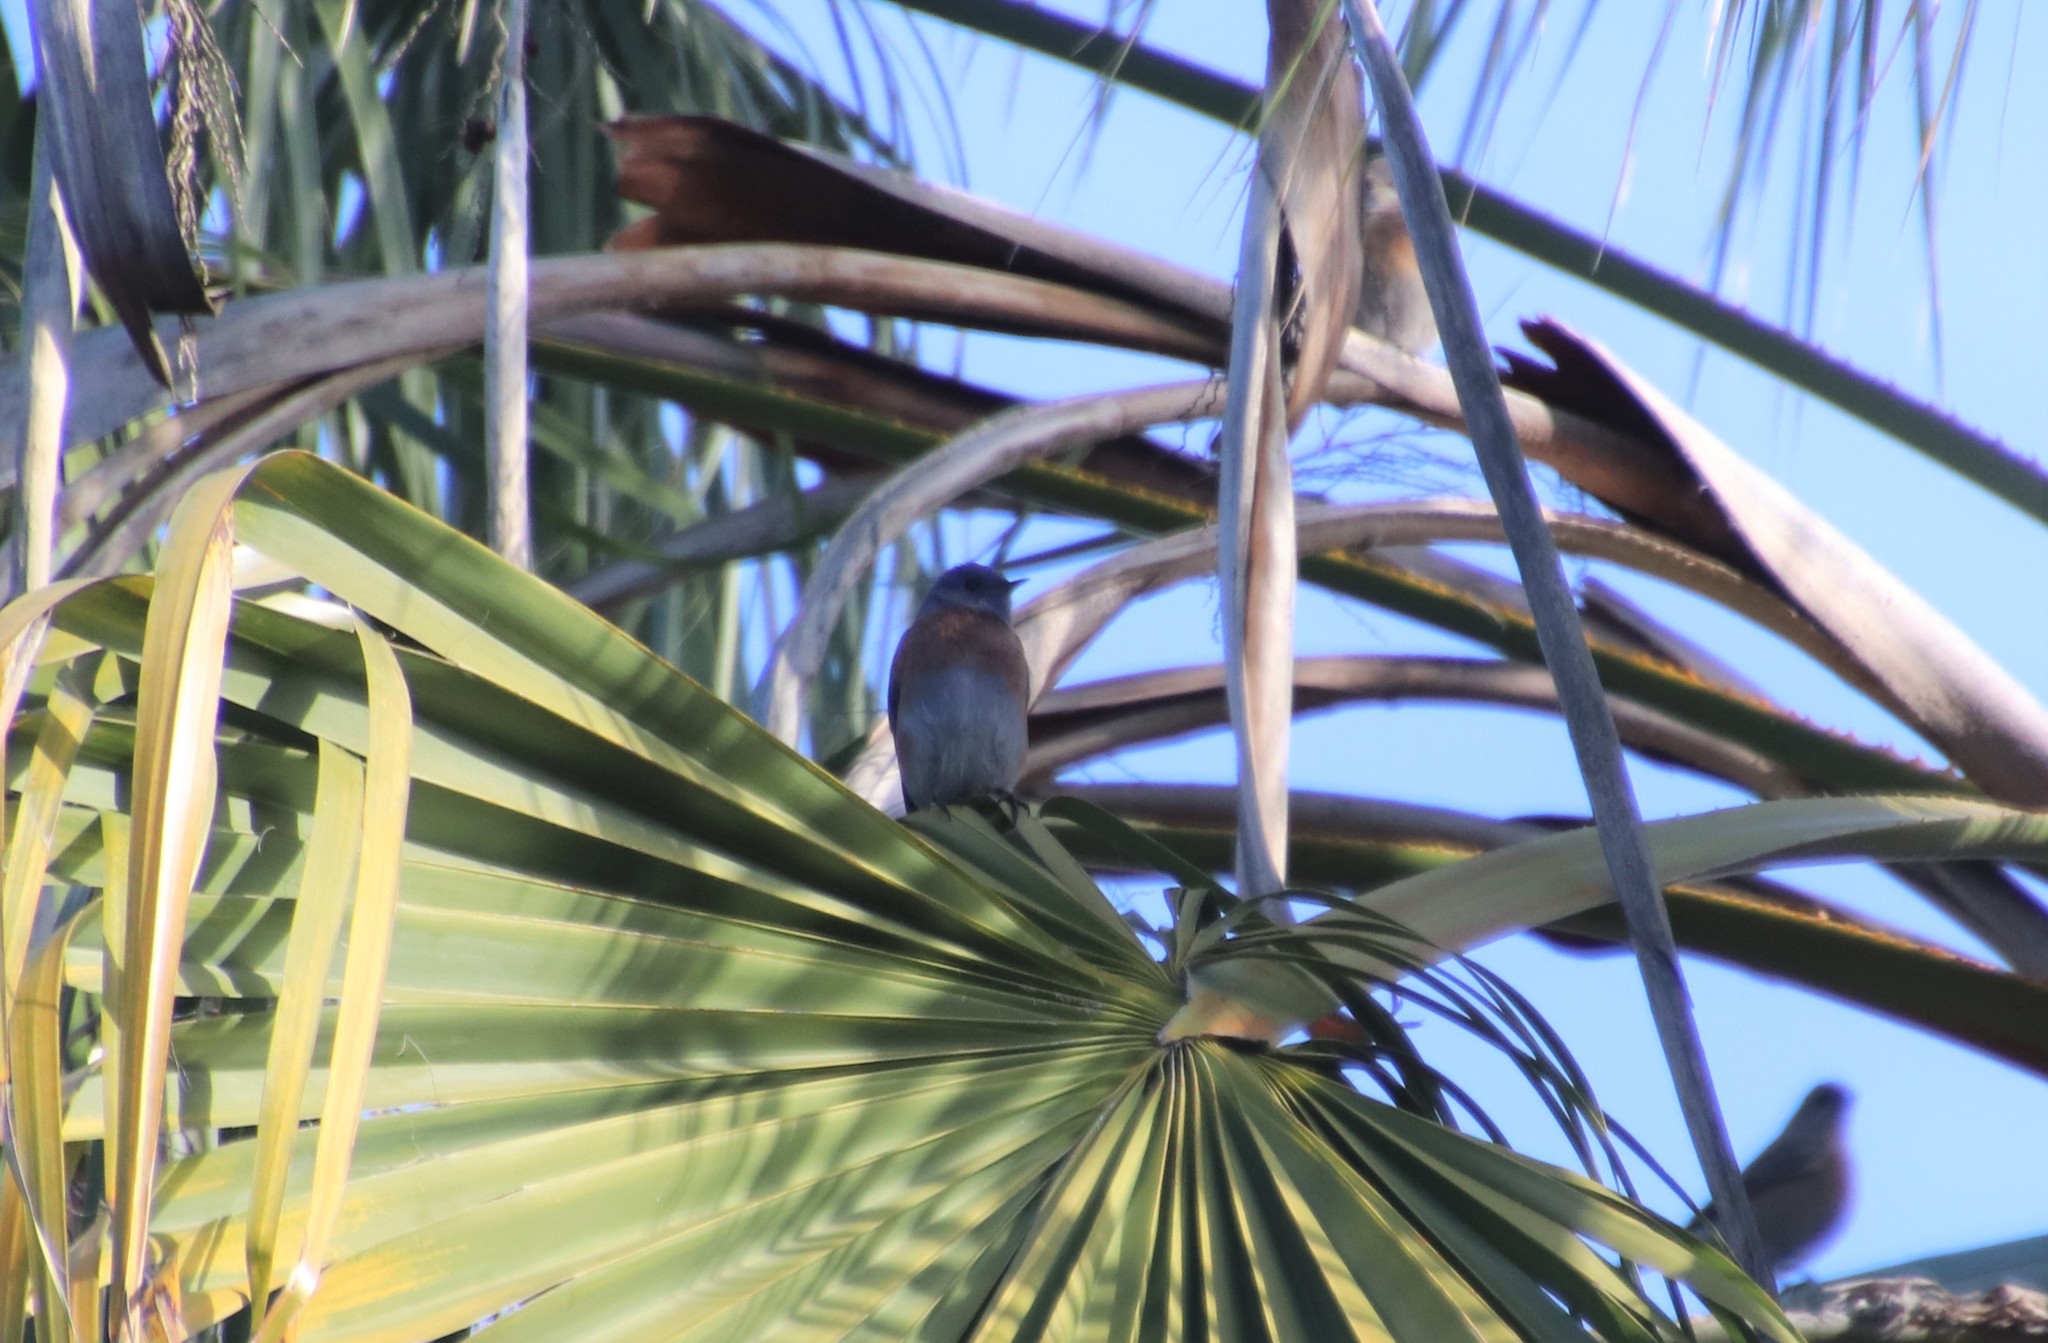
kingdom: Animalia
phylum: Chordata
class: Aves
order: Passeriformes
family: Turdidae
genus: Sialia
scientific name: Sialia mexicana
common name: Western bluebird
